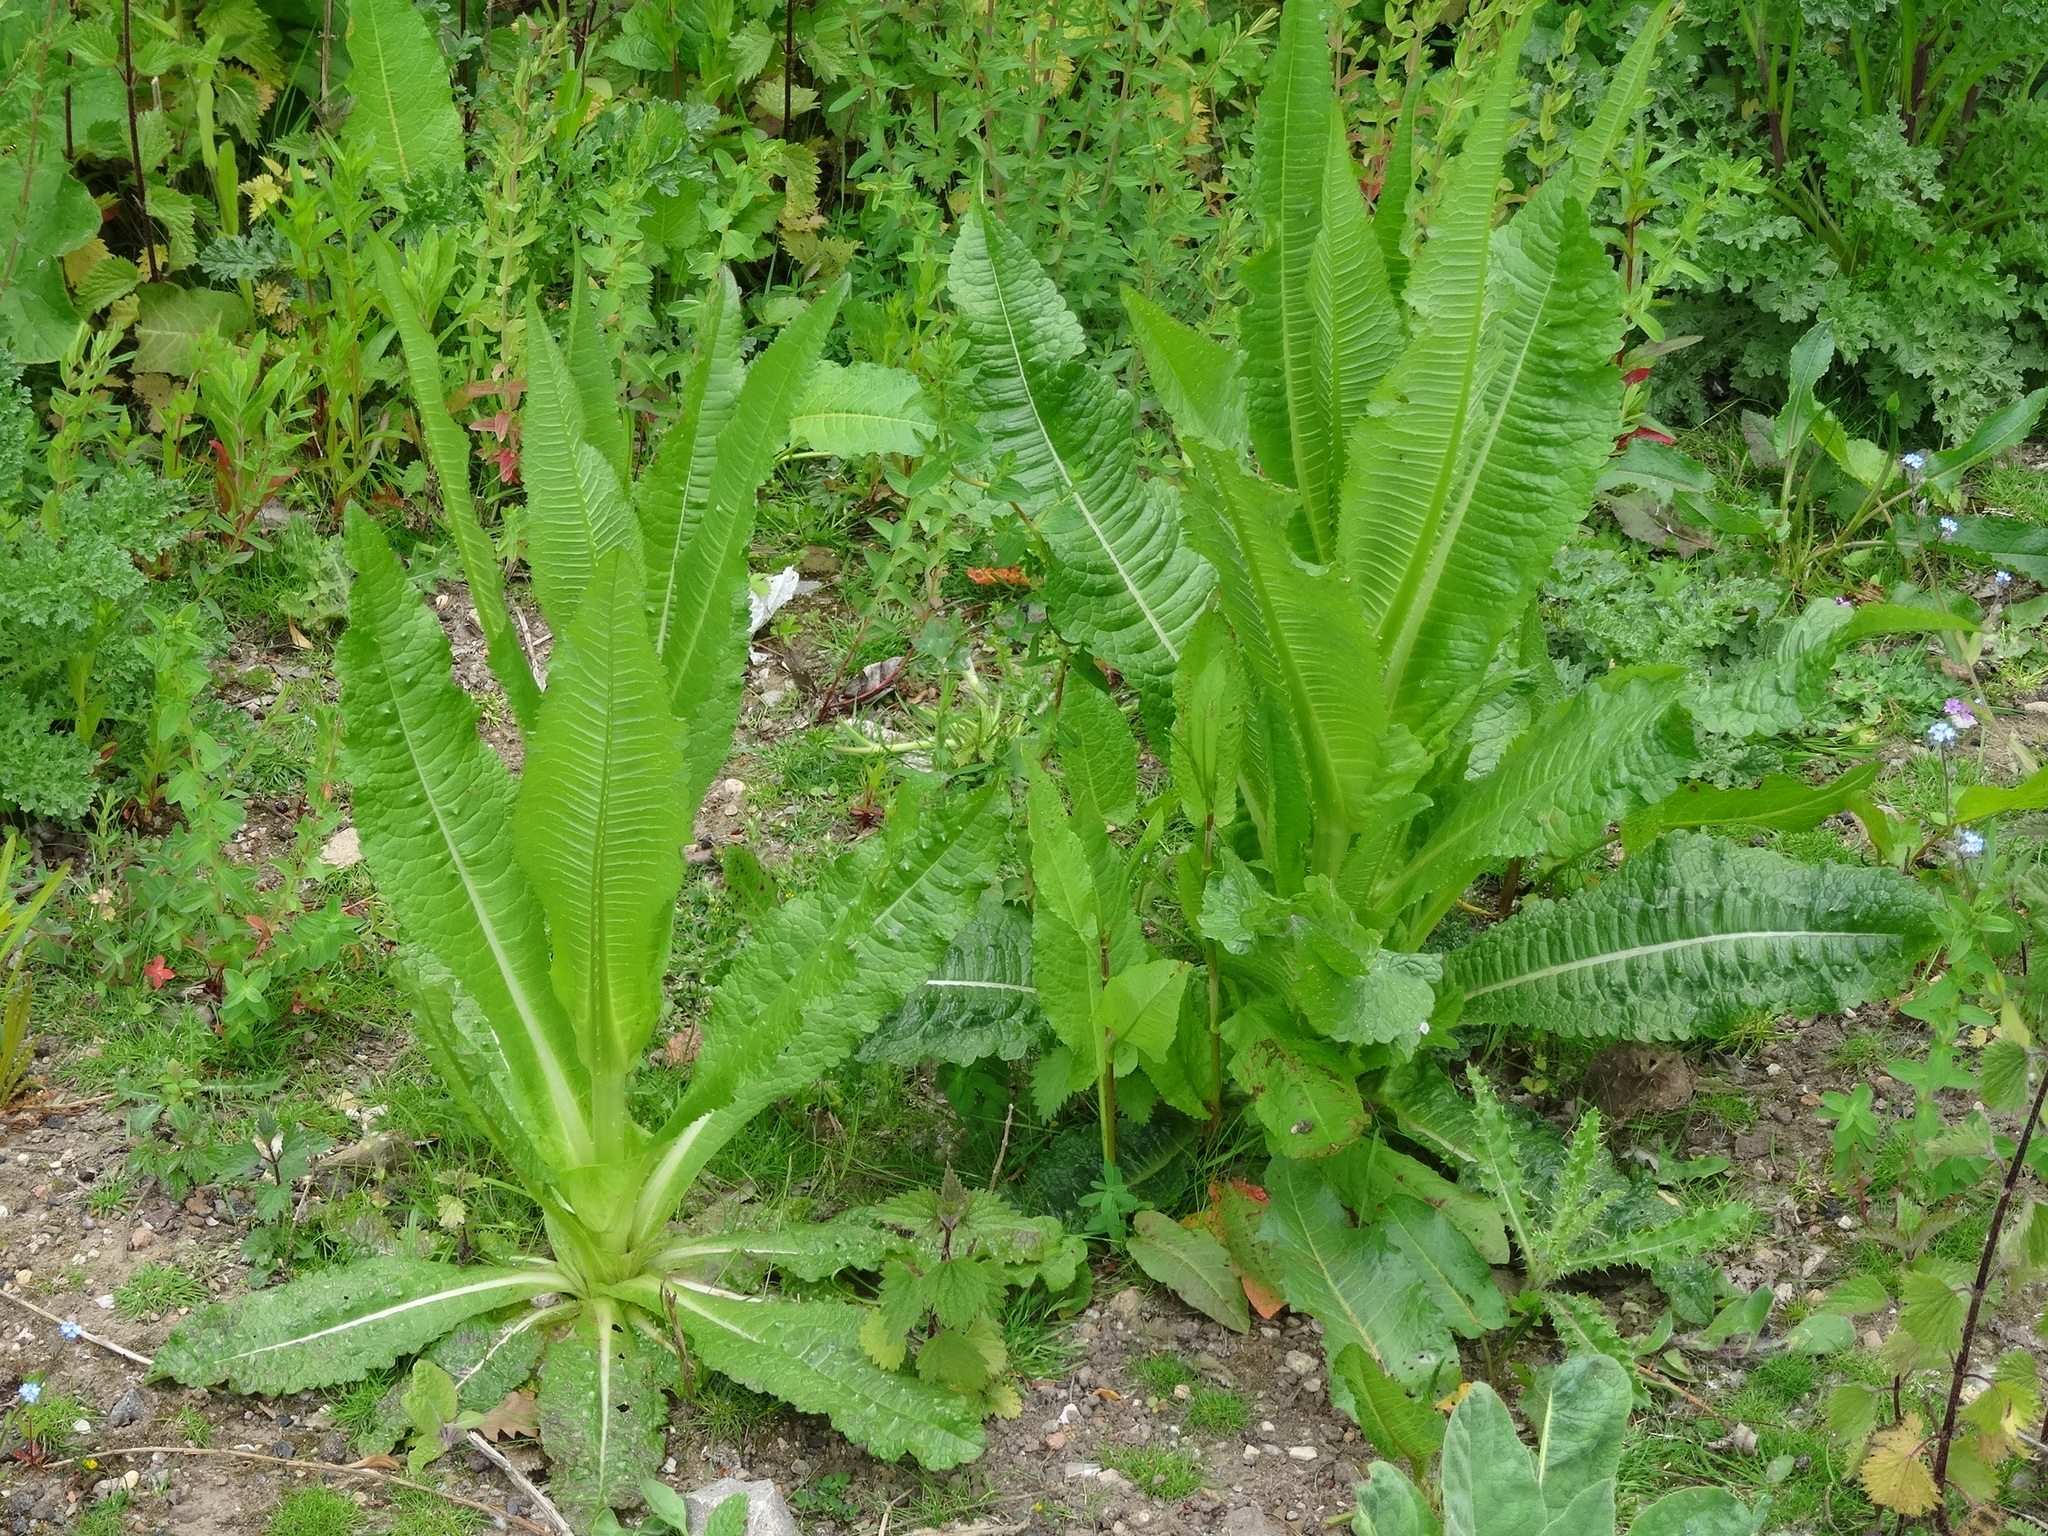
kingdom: Plantae
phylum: Tracheophyta
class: Magnoliopsida
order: Dipsacales
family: Caprifoliaceae
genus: Dipsacus
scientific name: Dipsacus fullonum
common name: Teasel
